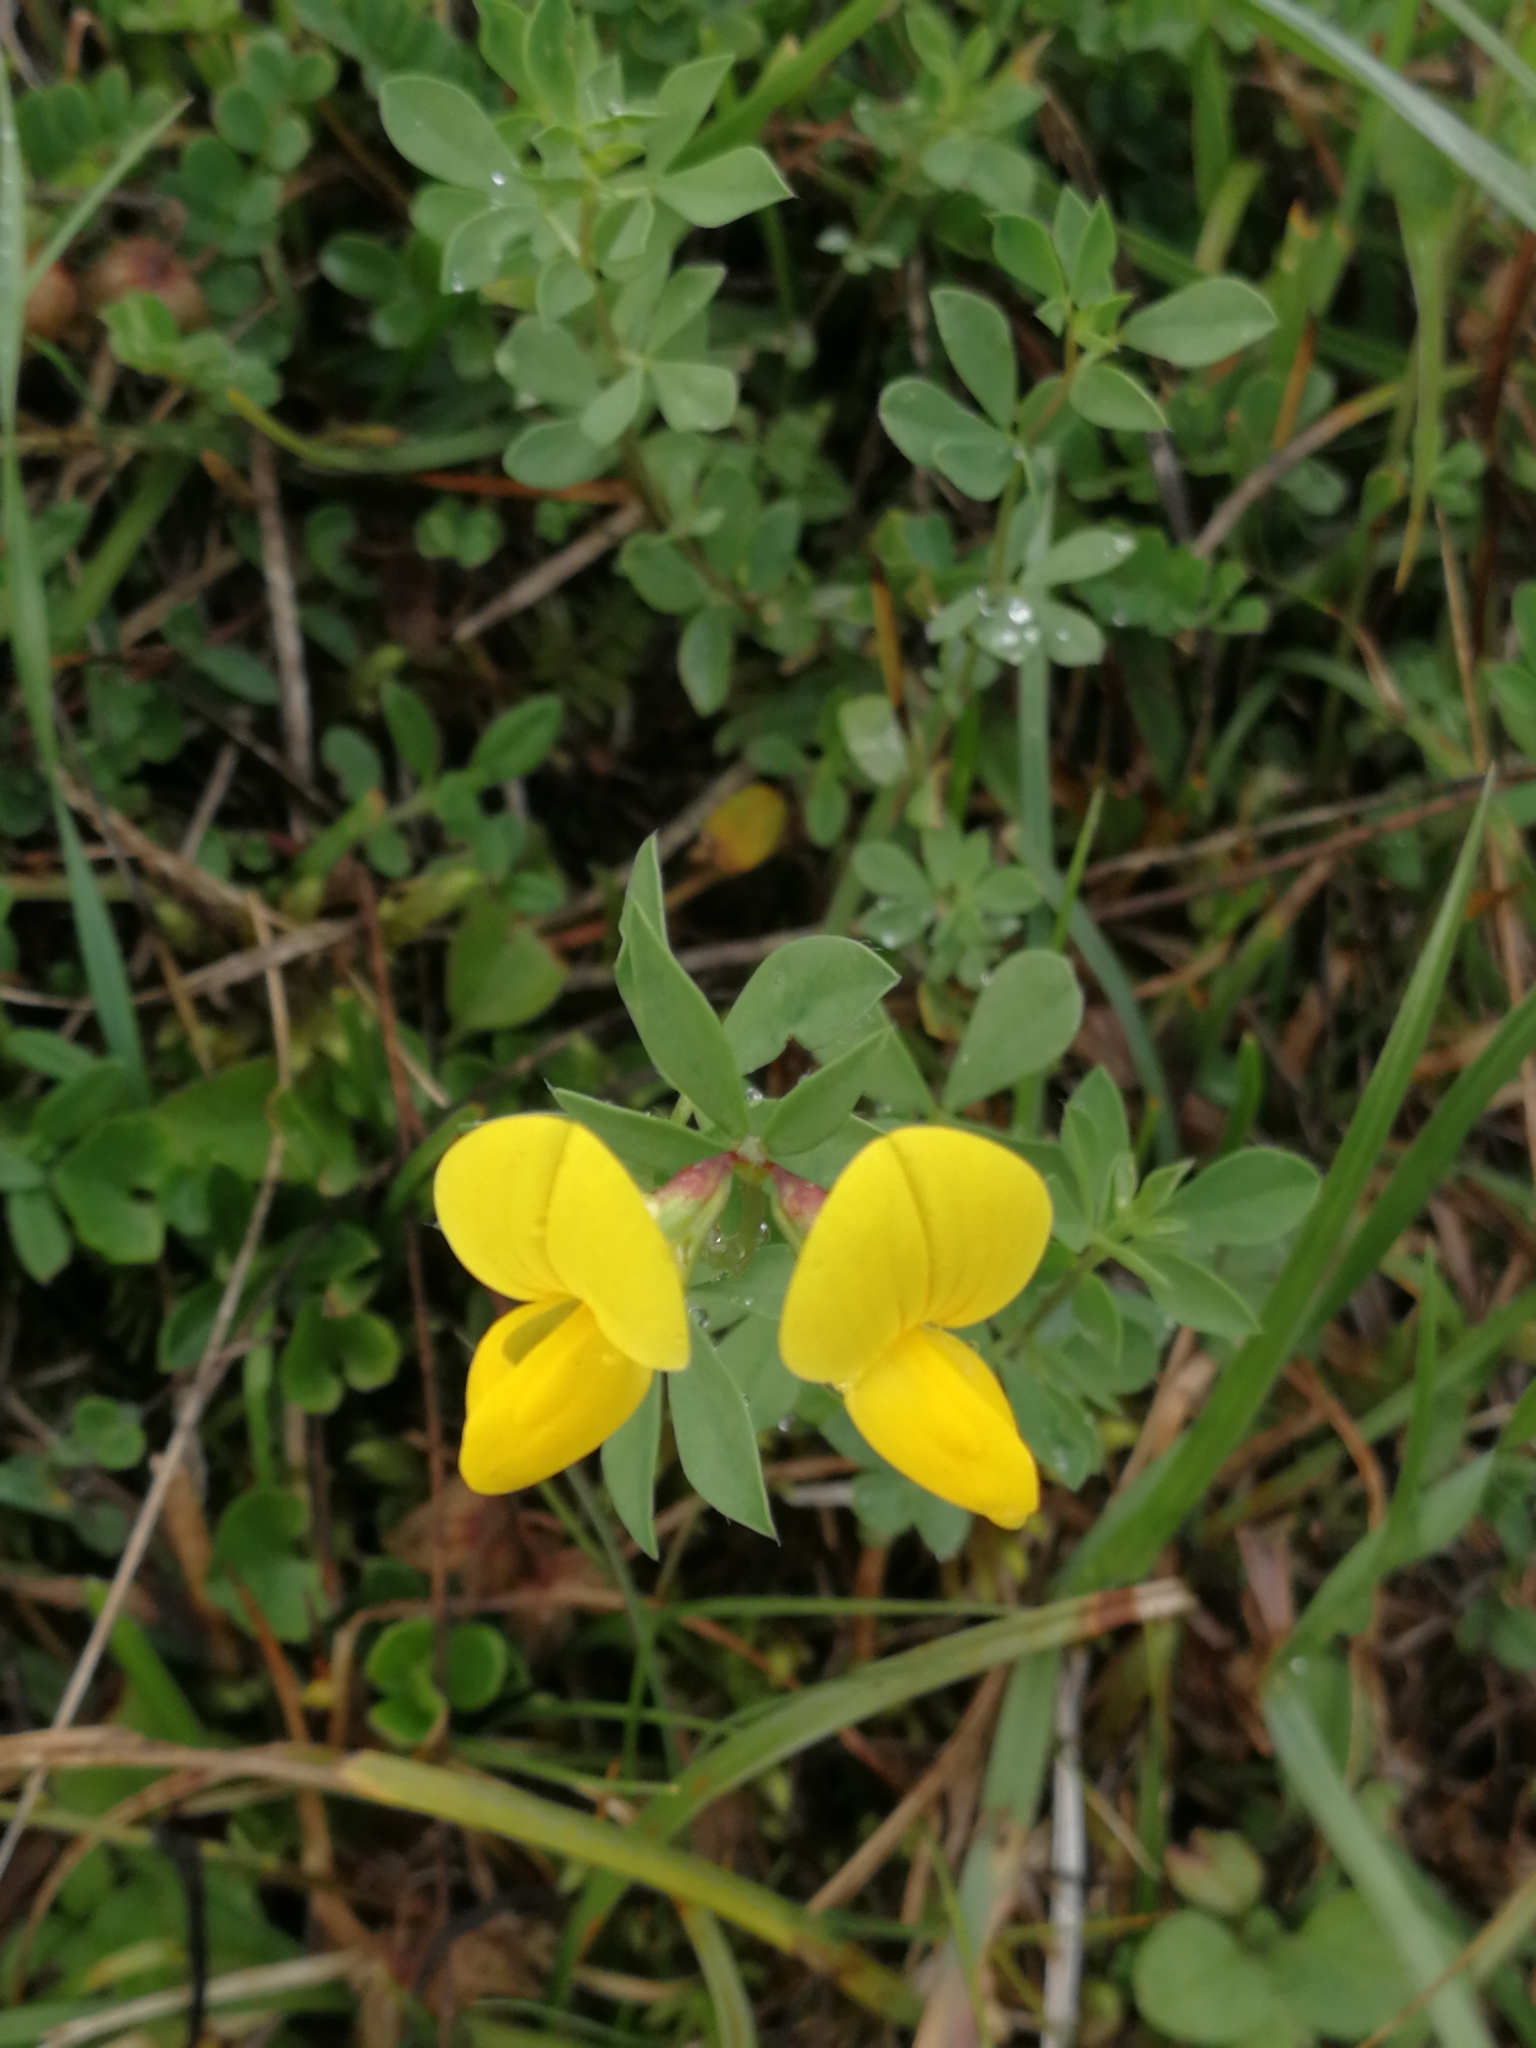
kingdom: Plantae
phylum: Tracheophyta
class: Magnoliopsida
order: Fabales
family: Fabaceae
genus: Lotus
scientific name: Lotus corniculatus
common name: Common bird's-foot-trefoil
